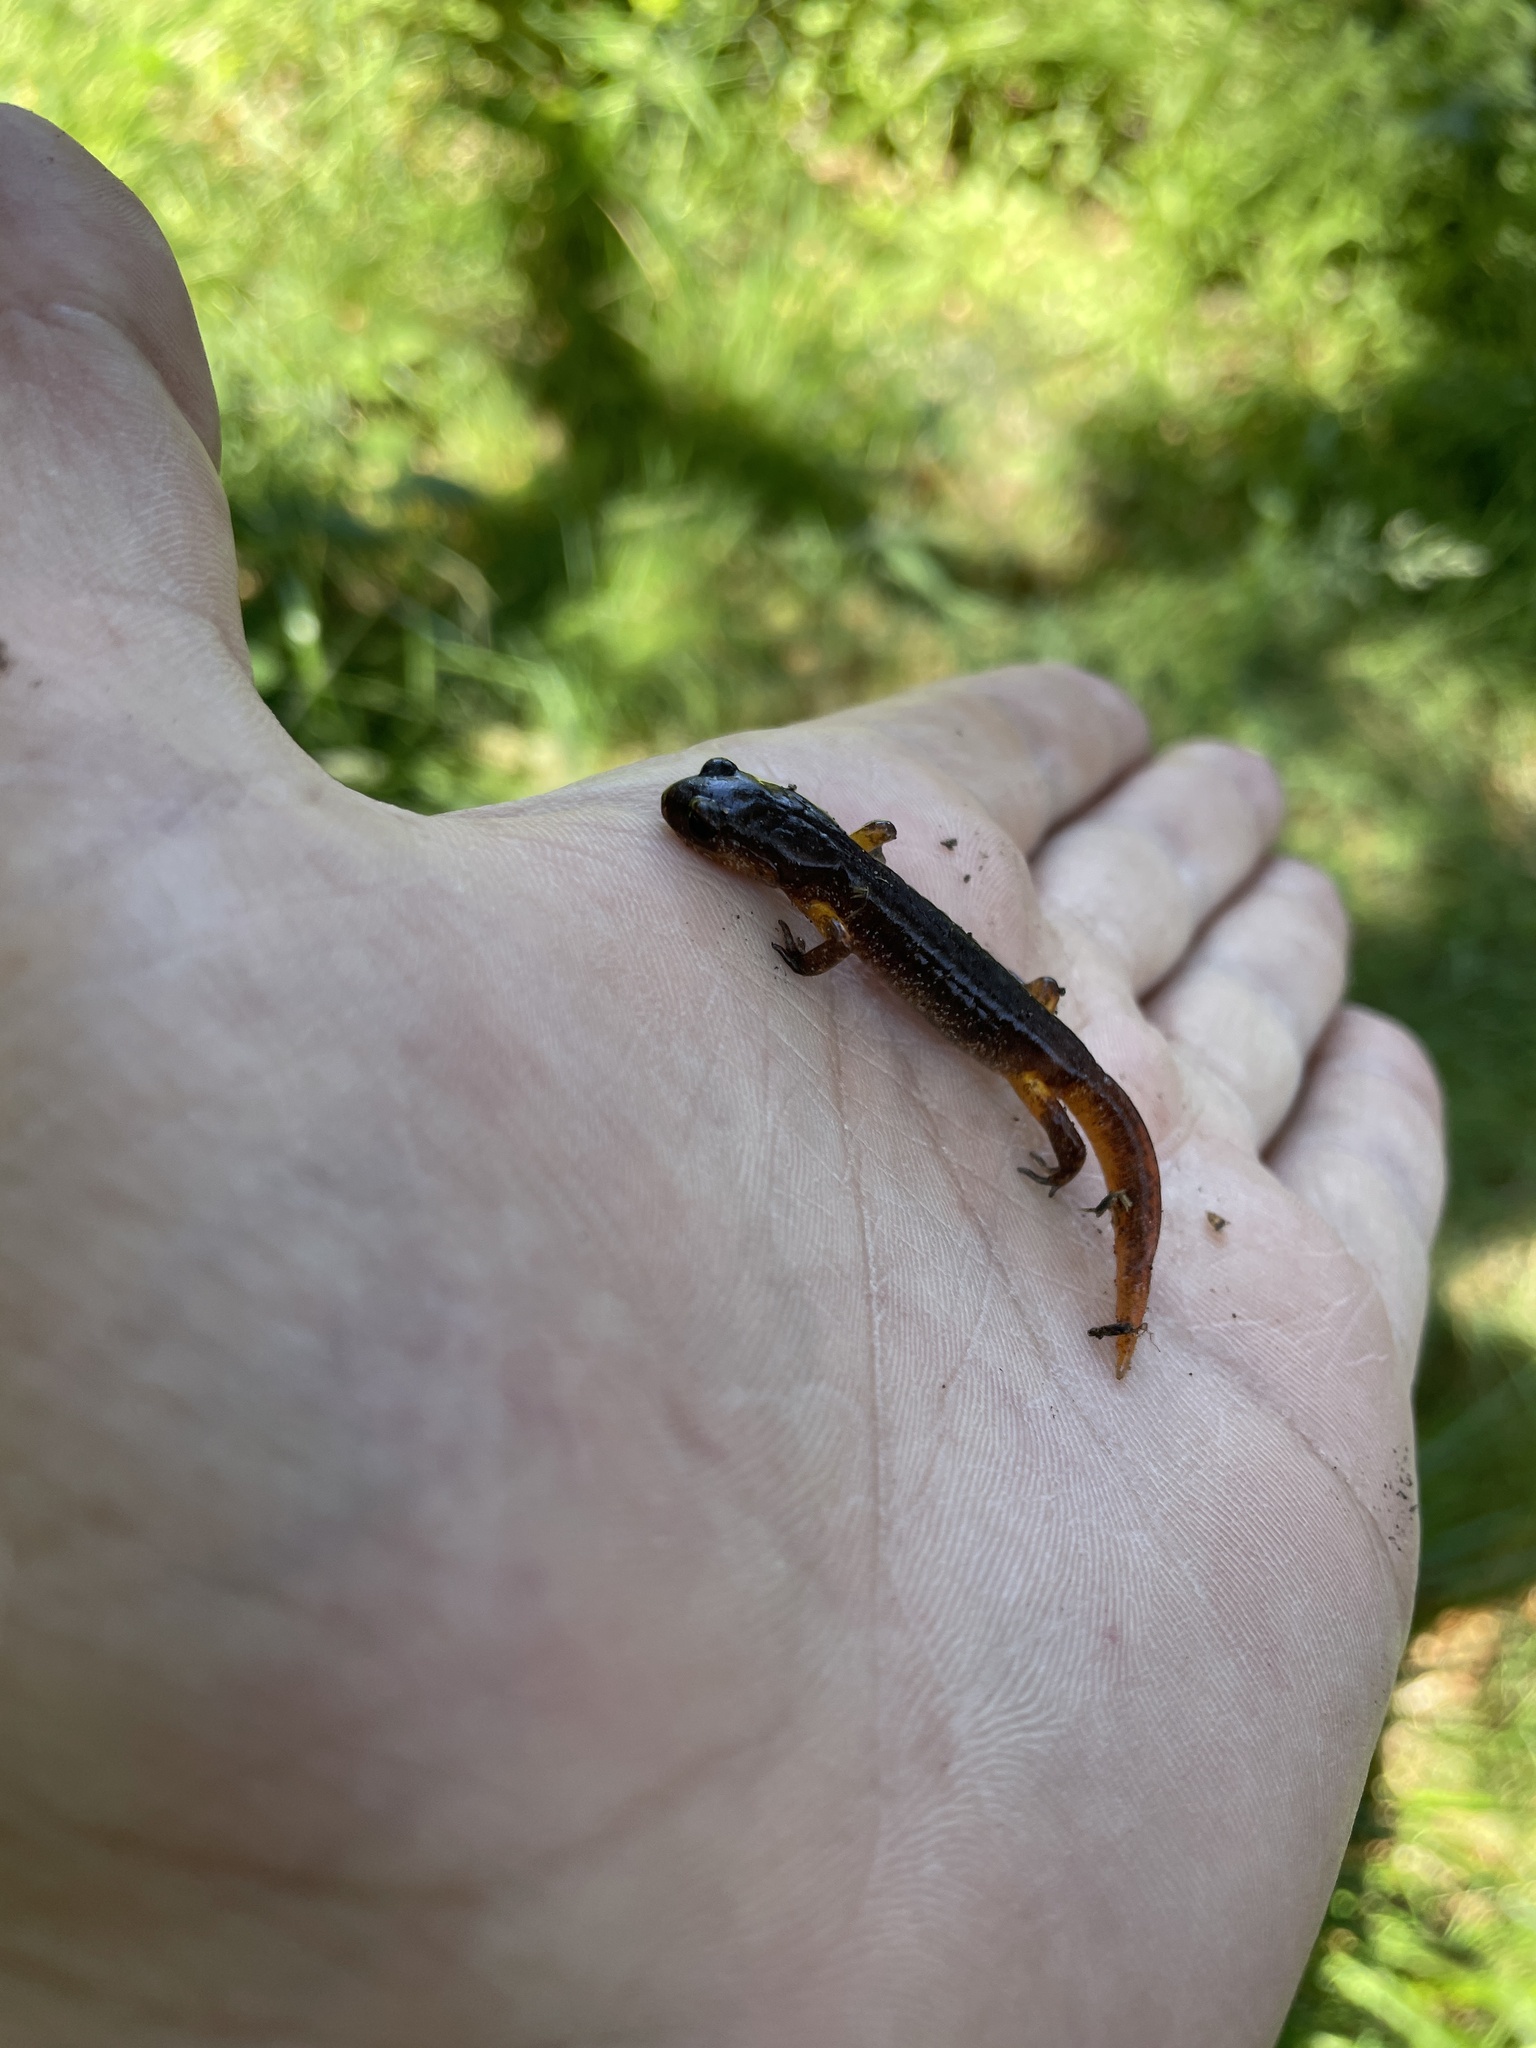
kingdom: Animalia
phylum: Chordata
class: Amphibia
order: Caudata
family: Plethodontidae
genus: Ensatina
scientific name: Ensatina eschscholtzii
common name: Ensatina
